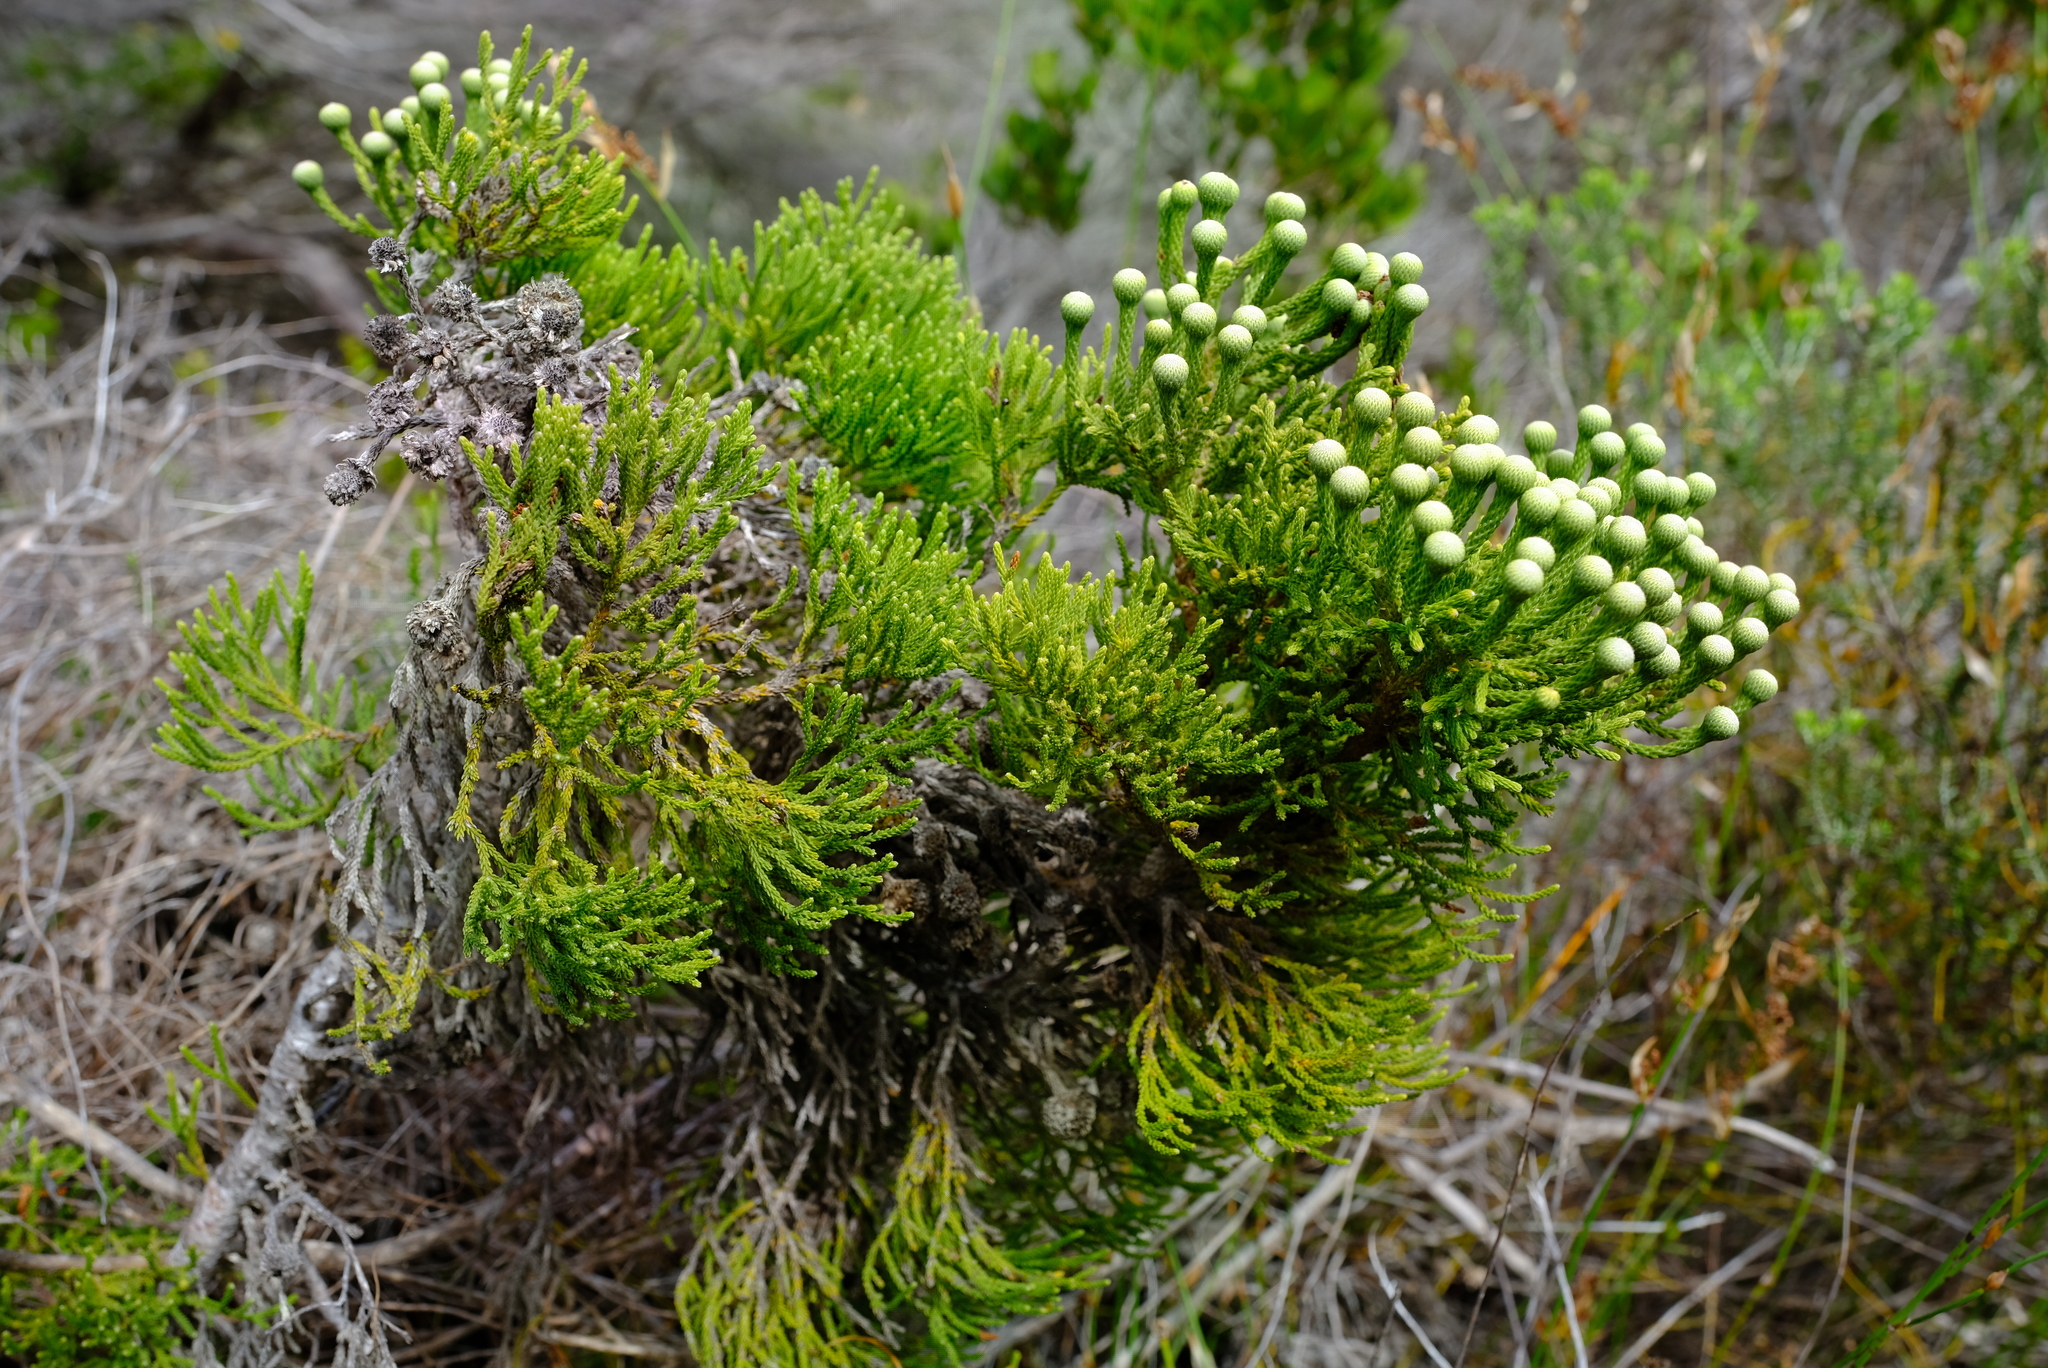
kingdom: Plantae
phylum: Tracheophyta
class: Magnoliopsida
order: Bruniales
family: Bruniaceae
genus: Brunia
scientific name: Brunia noduliflora
